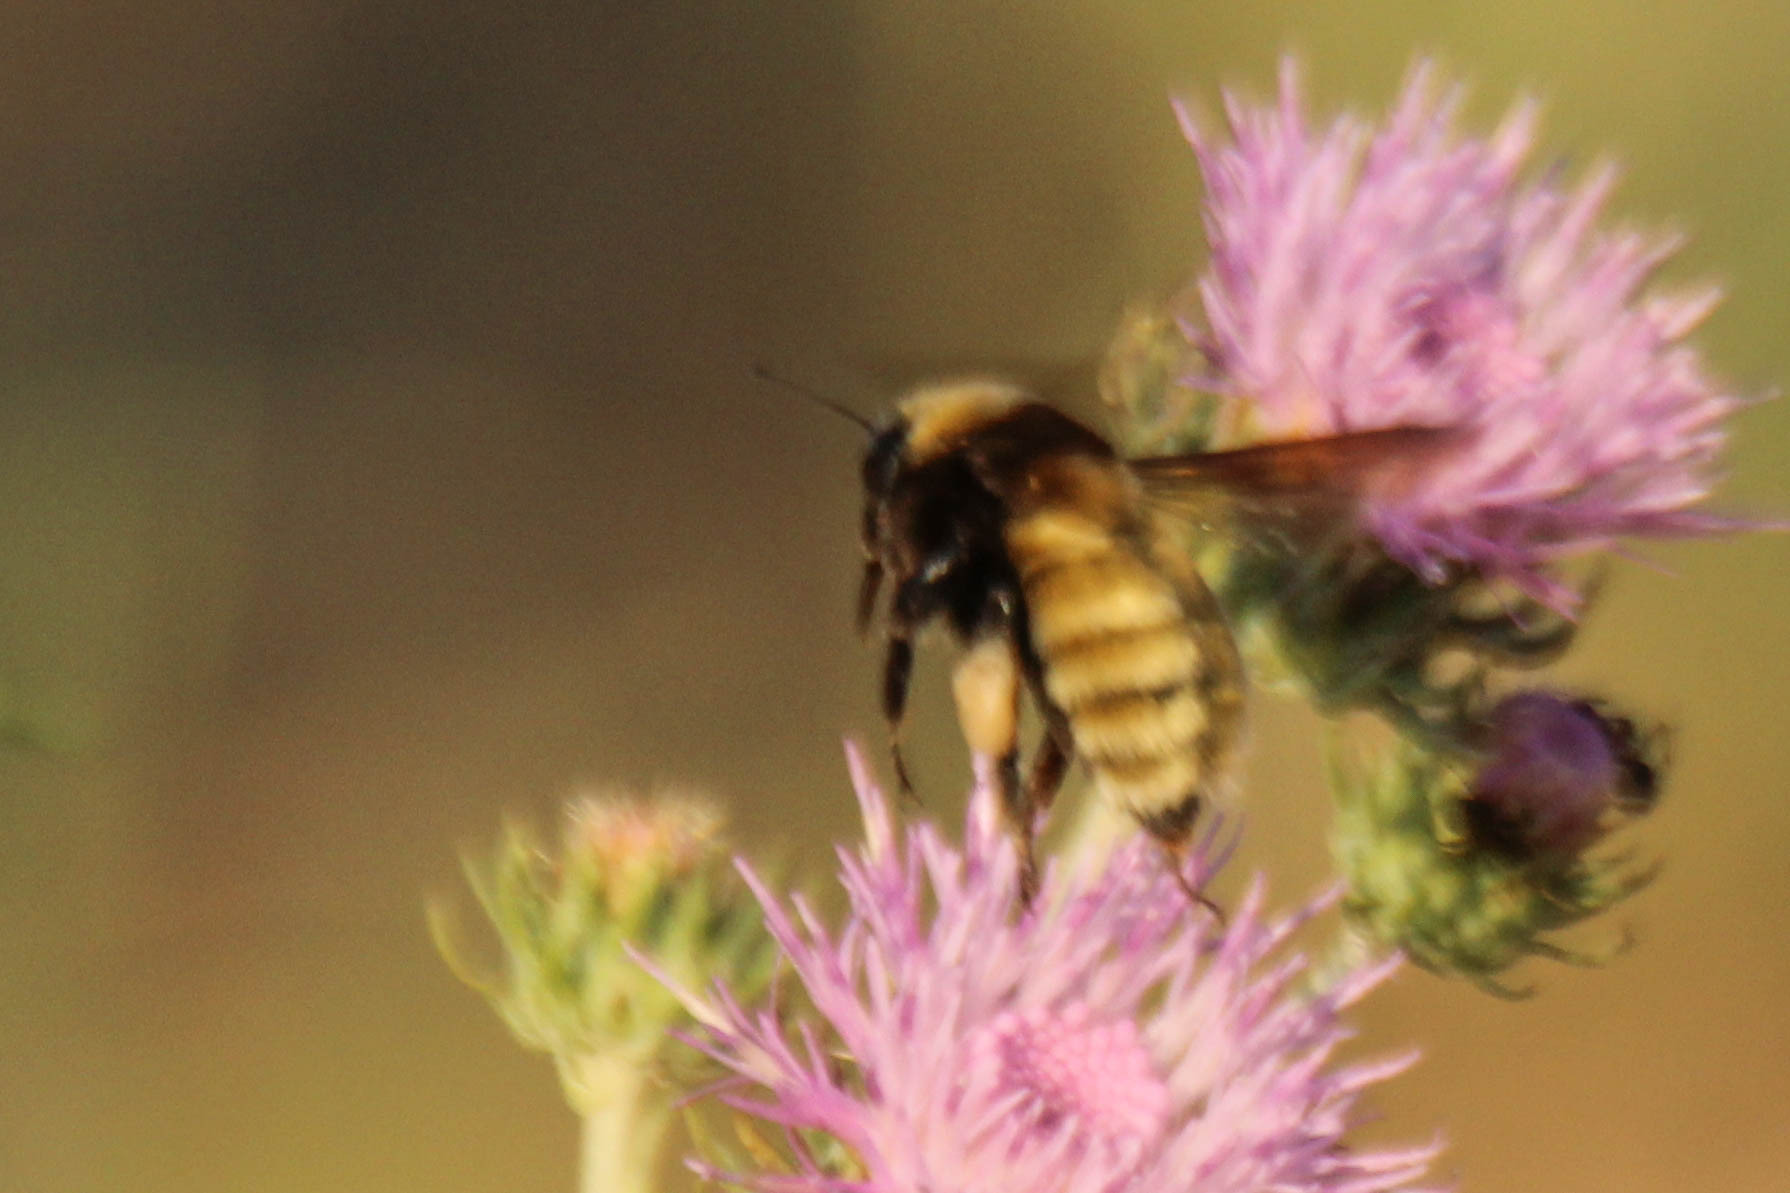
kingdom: Animalia
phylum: Arthropoda
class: Insecta
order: Hymenoptera
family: Apidae
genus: Bombus
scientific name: Bombus fragrans
